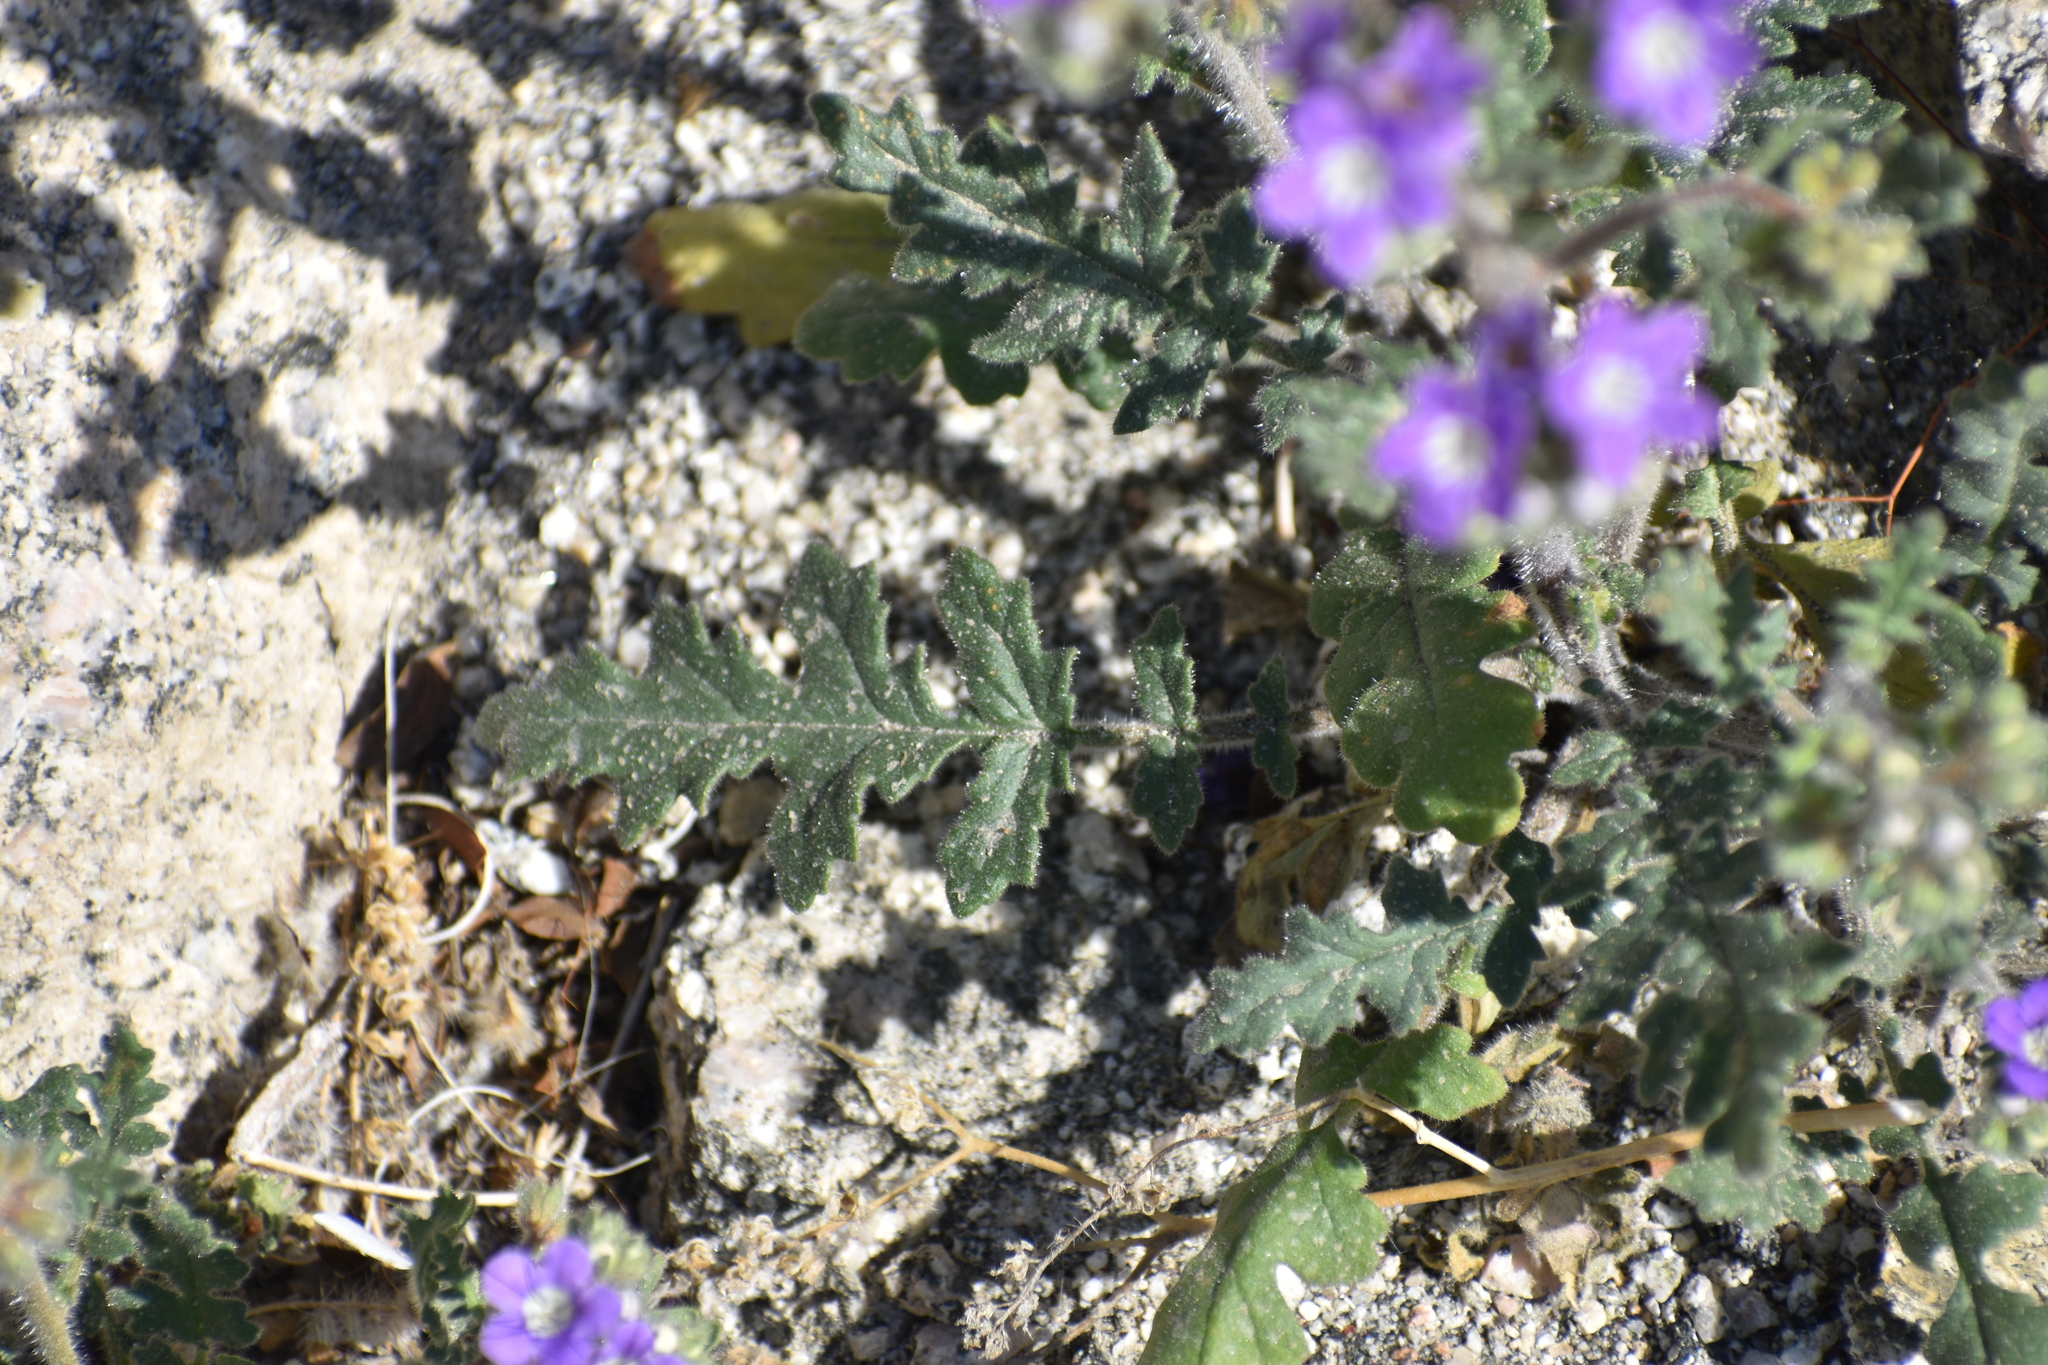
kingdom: Plantae
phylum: Tracheophyta
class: Magnoliopsida
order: Boraginales
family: Hydrophyllaceae
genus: Phacelia
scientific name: Phacelia crenulata
